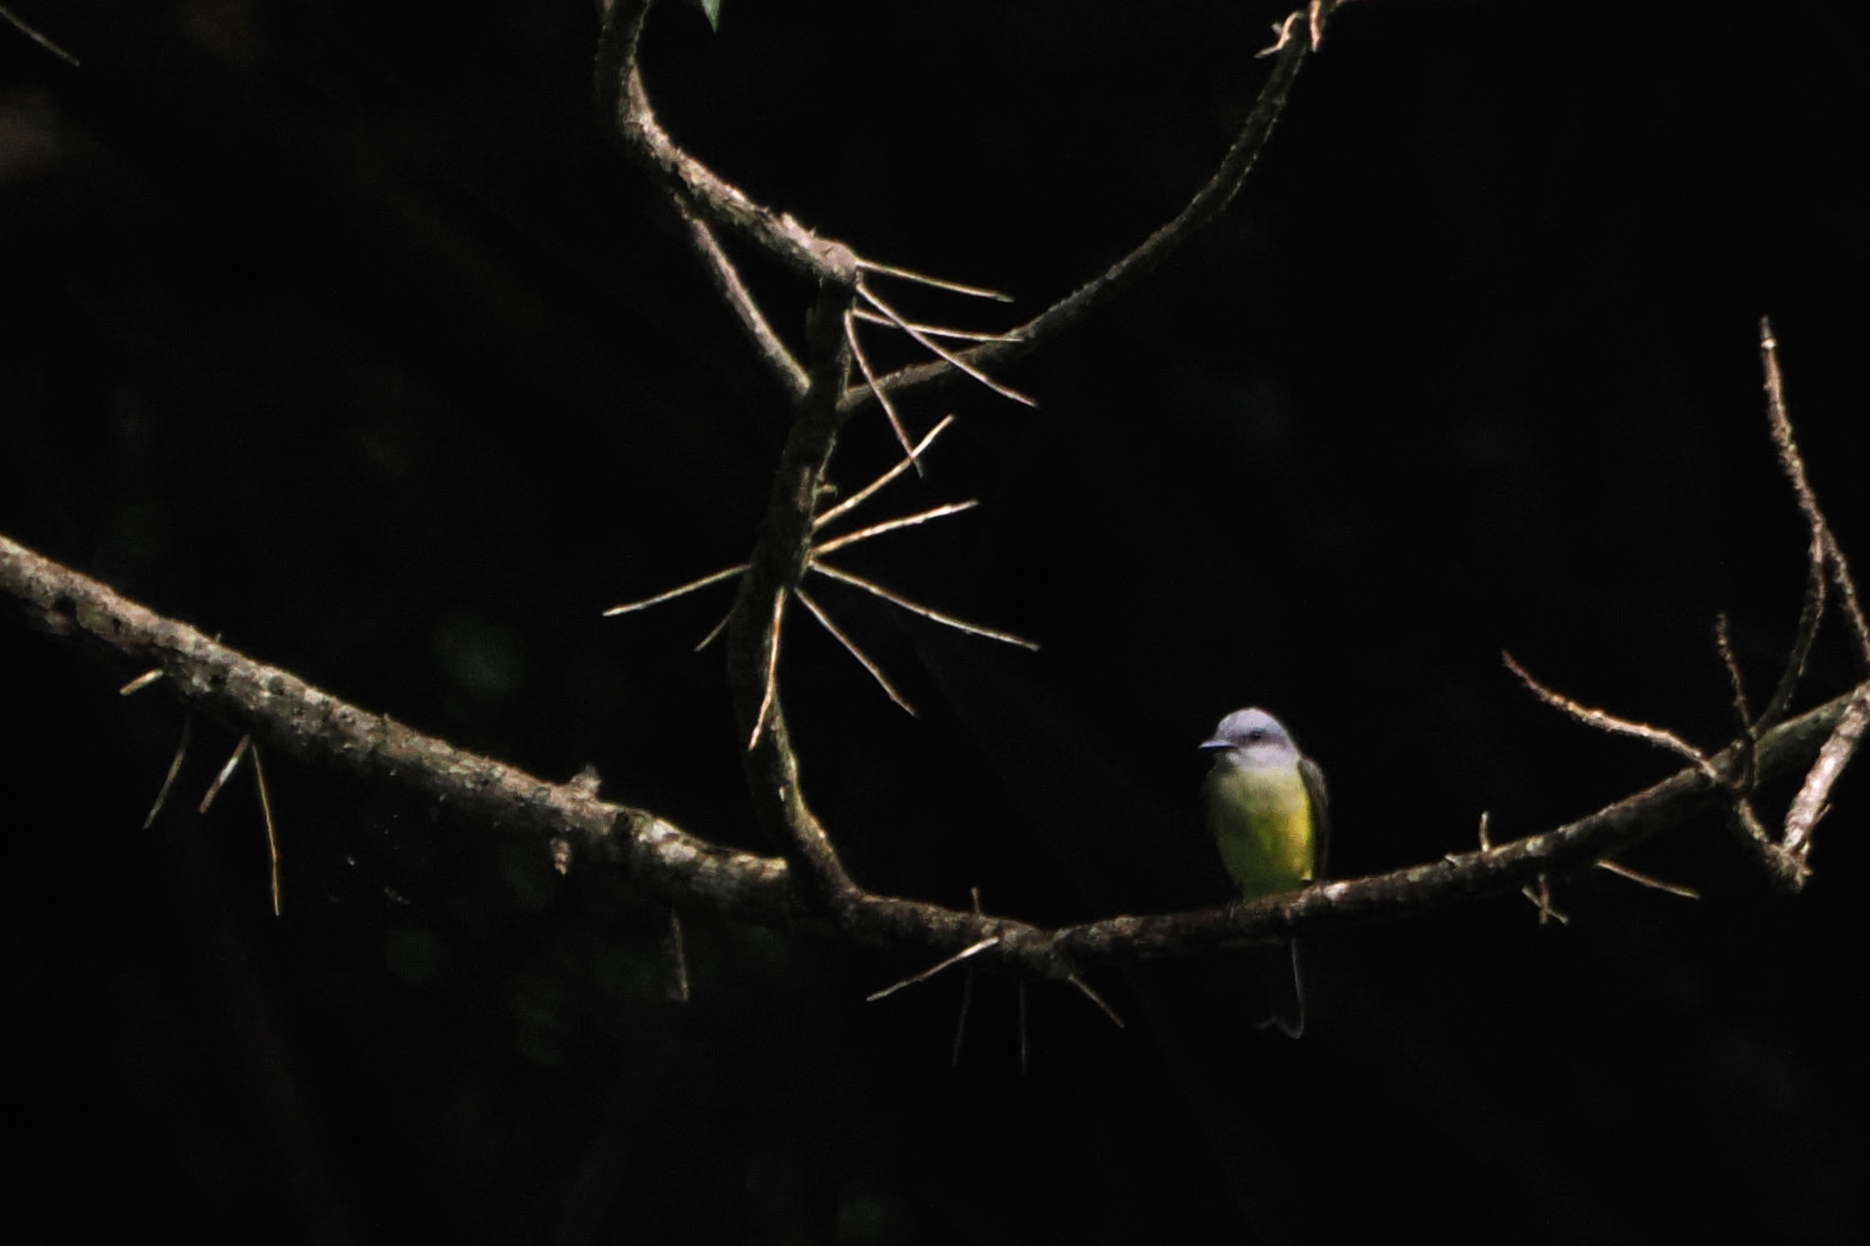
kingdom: Animalia
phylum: Chordata
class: Aves
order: Passeriformes
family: Tyrannidae
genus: Tyrannus
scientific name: Tyrannus melancholicus
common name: Tropical kingbird
